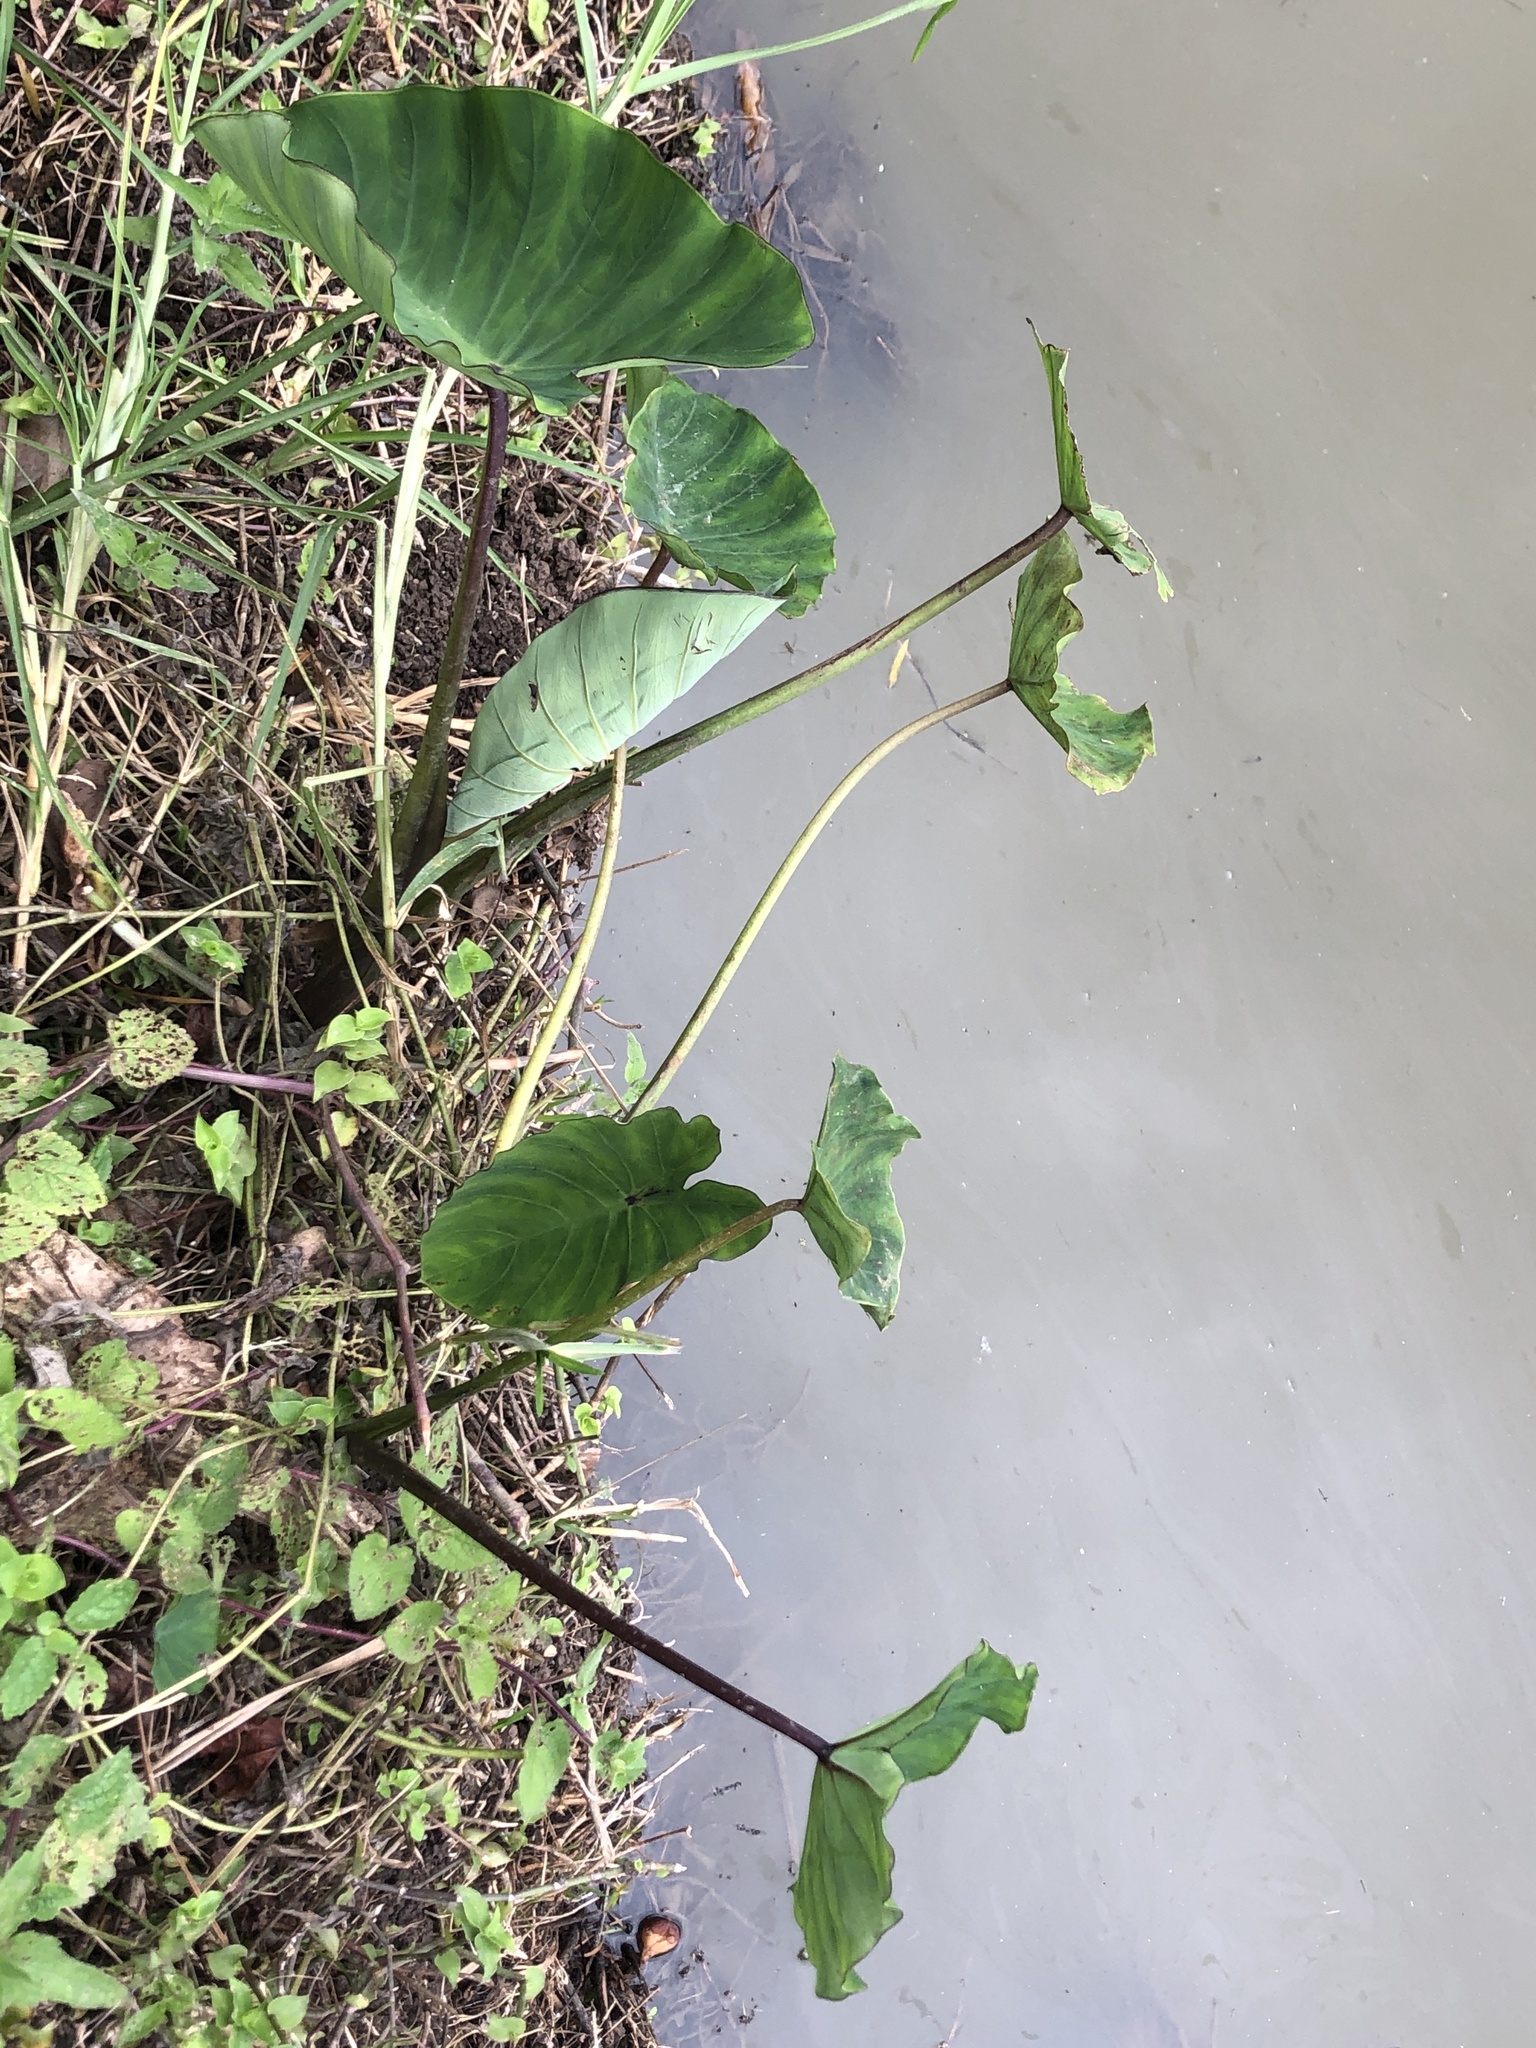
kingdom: Plantae
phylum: Tracheophyta
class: Liliopsida
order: Alismatales
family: Araceae
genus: Colocasia
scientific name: Colocasia esculenta
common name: Taro
